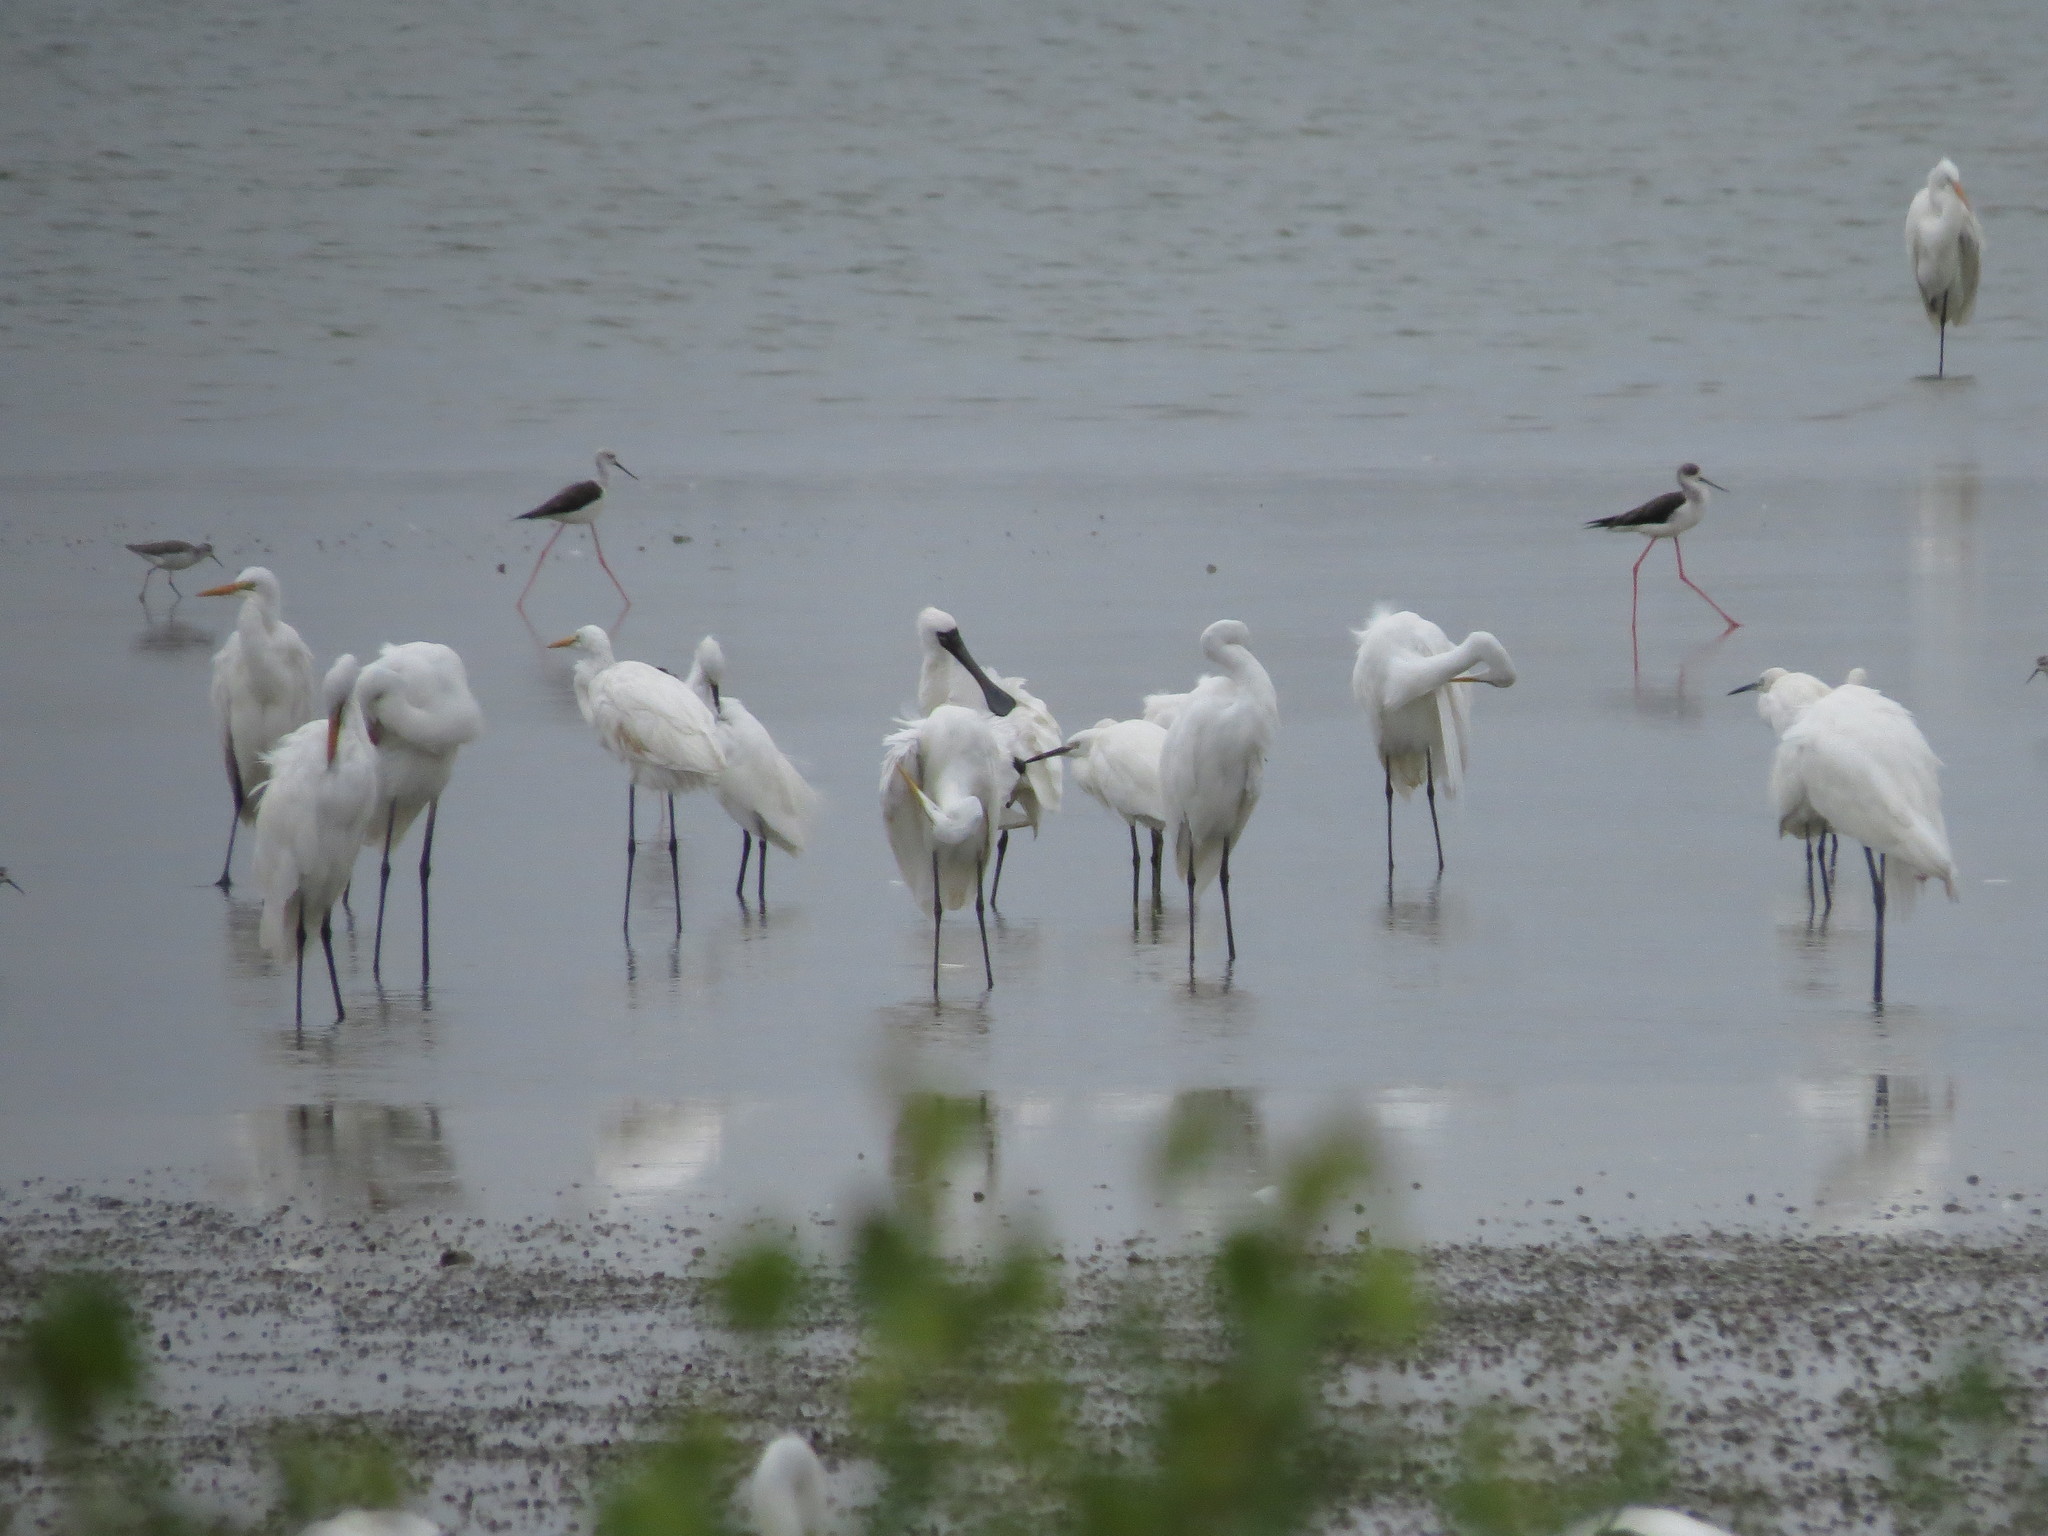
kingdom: Animalia
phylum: Chordata
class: Aves
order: Pelecaniformes
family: Threskiornithidae
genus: Platalea
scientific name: Platalea minor
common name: Black-faced spoonbill
